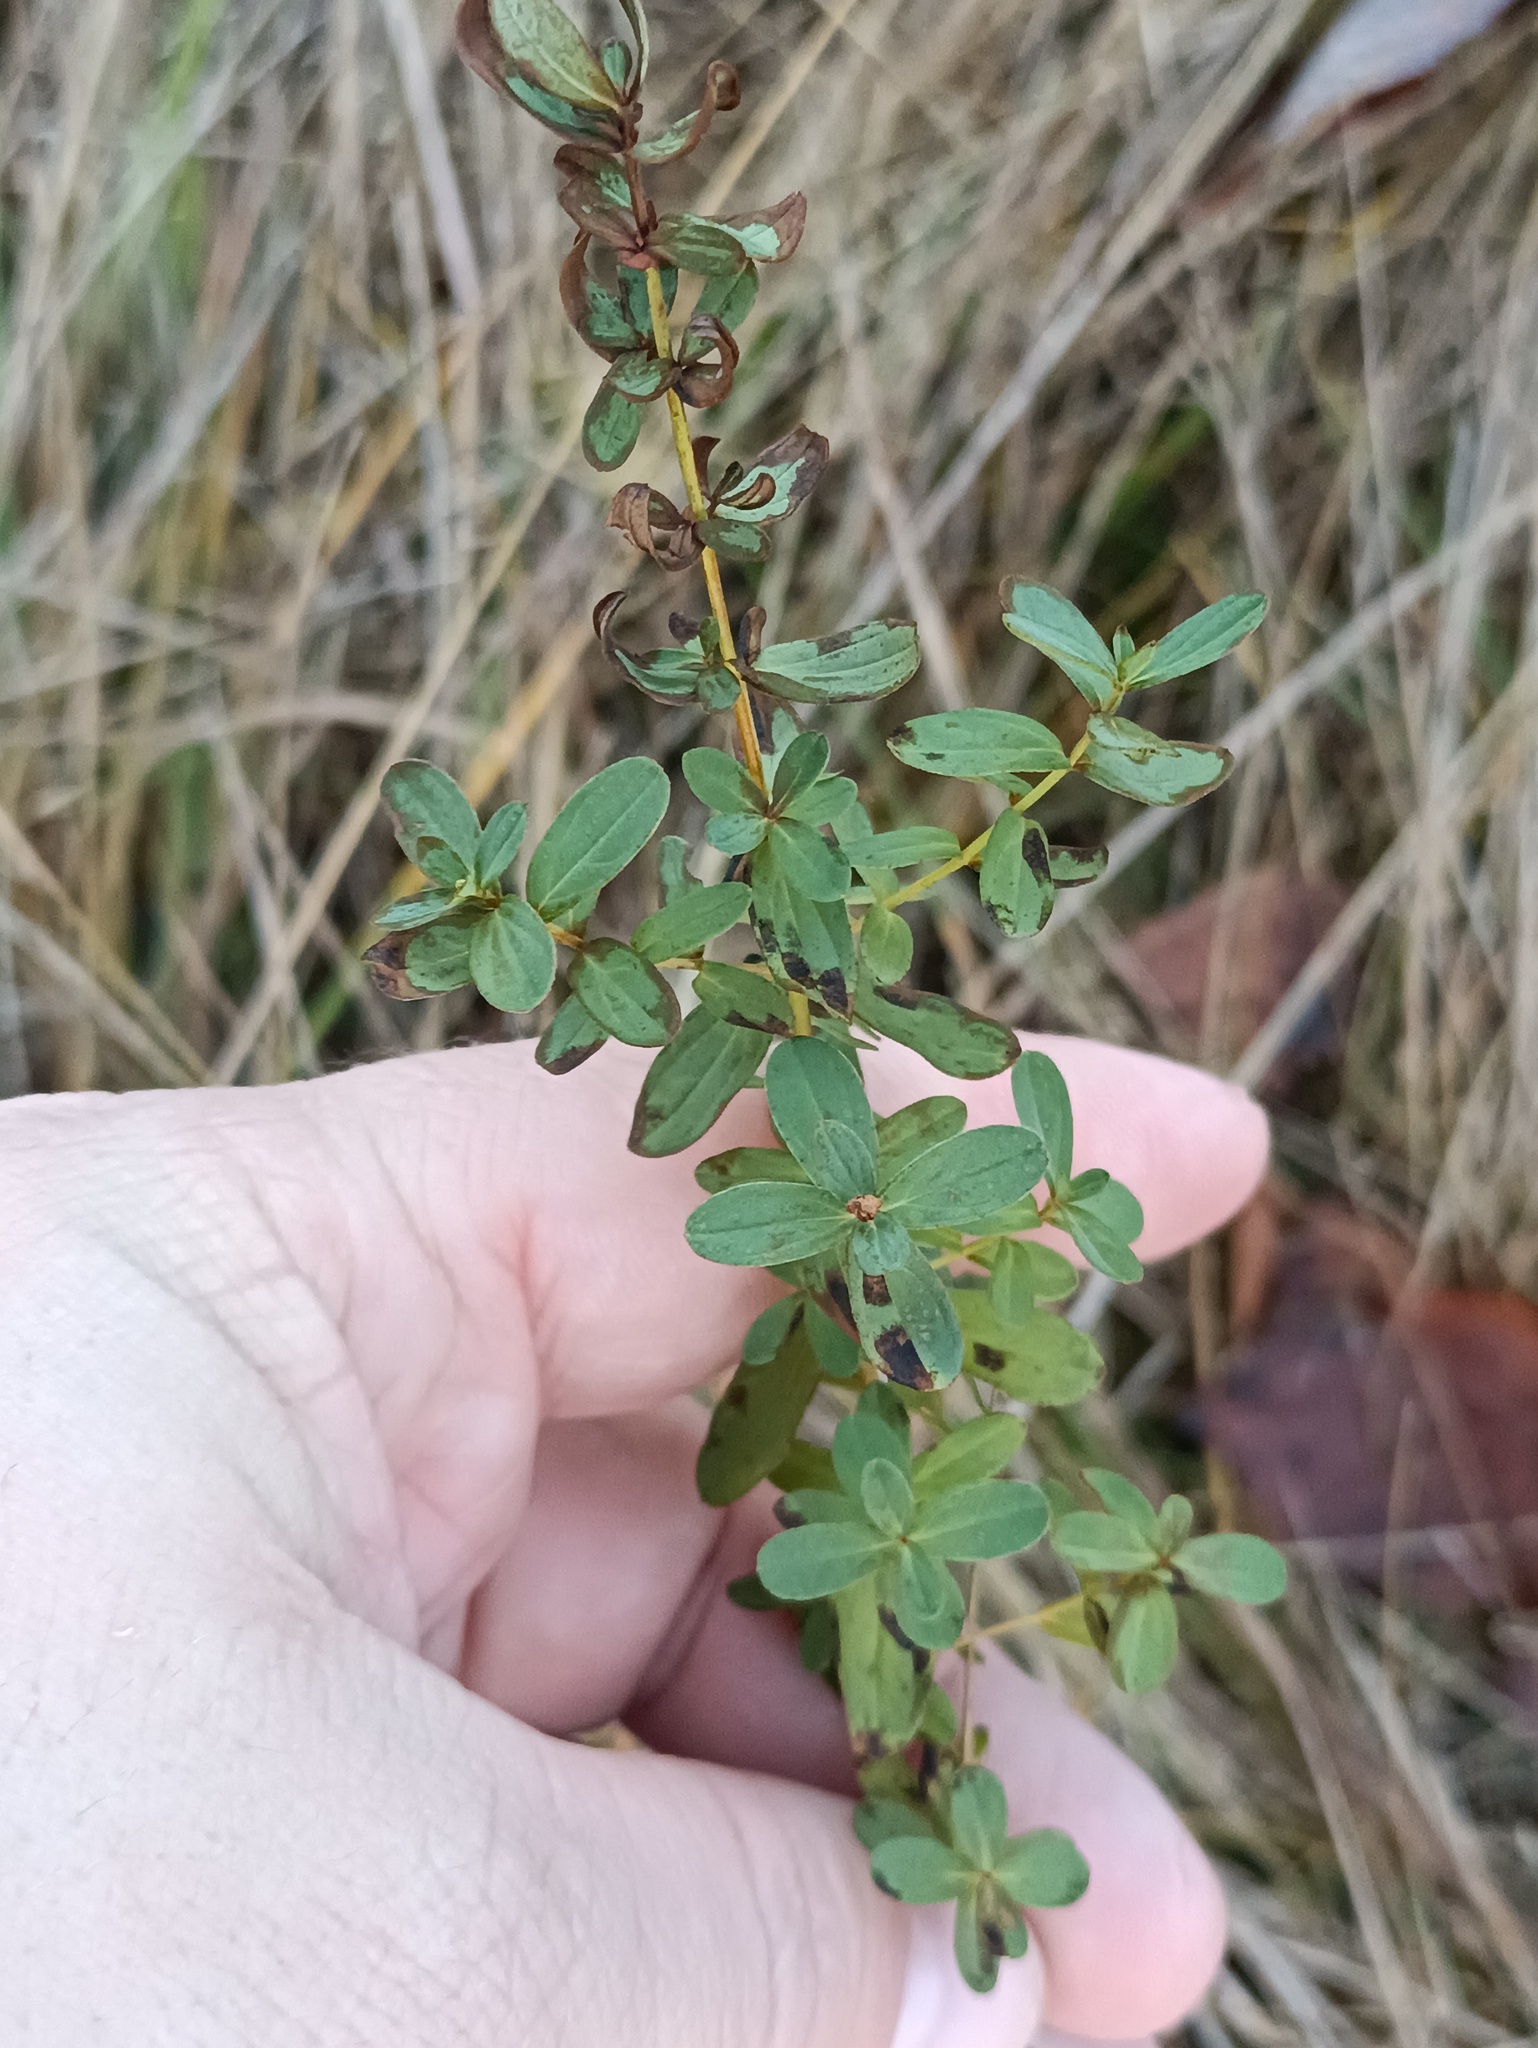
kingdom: Plantae
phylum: Tracheophyta
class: Magnoliopsida
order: Malpighiales
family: Hypericaceae
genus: Hypericum
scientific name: Hypericum perforatum
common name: Common st. johnswort
